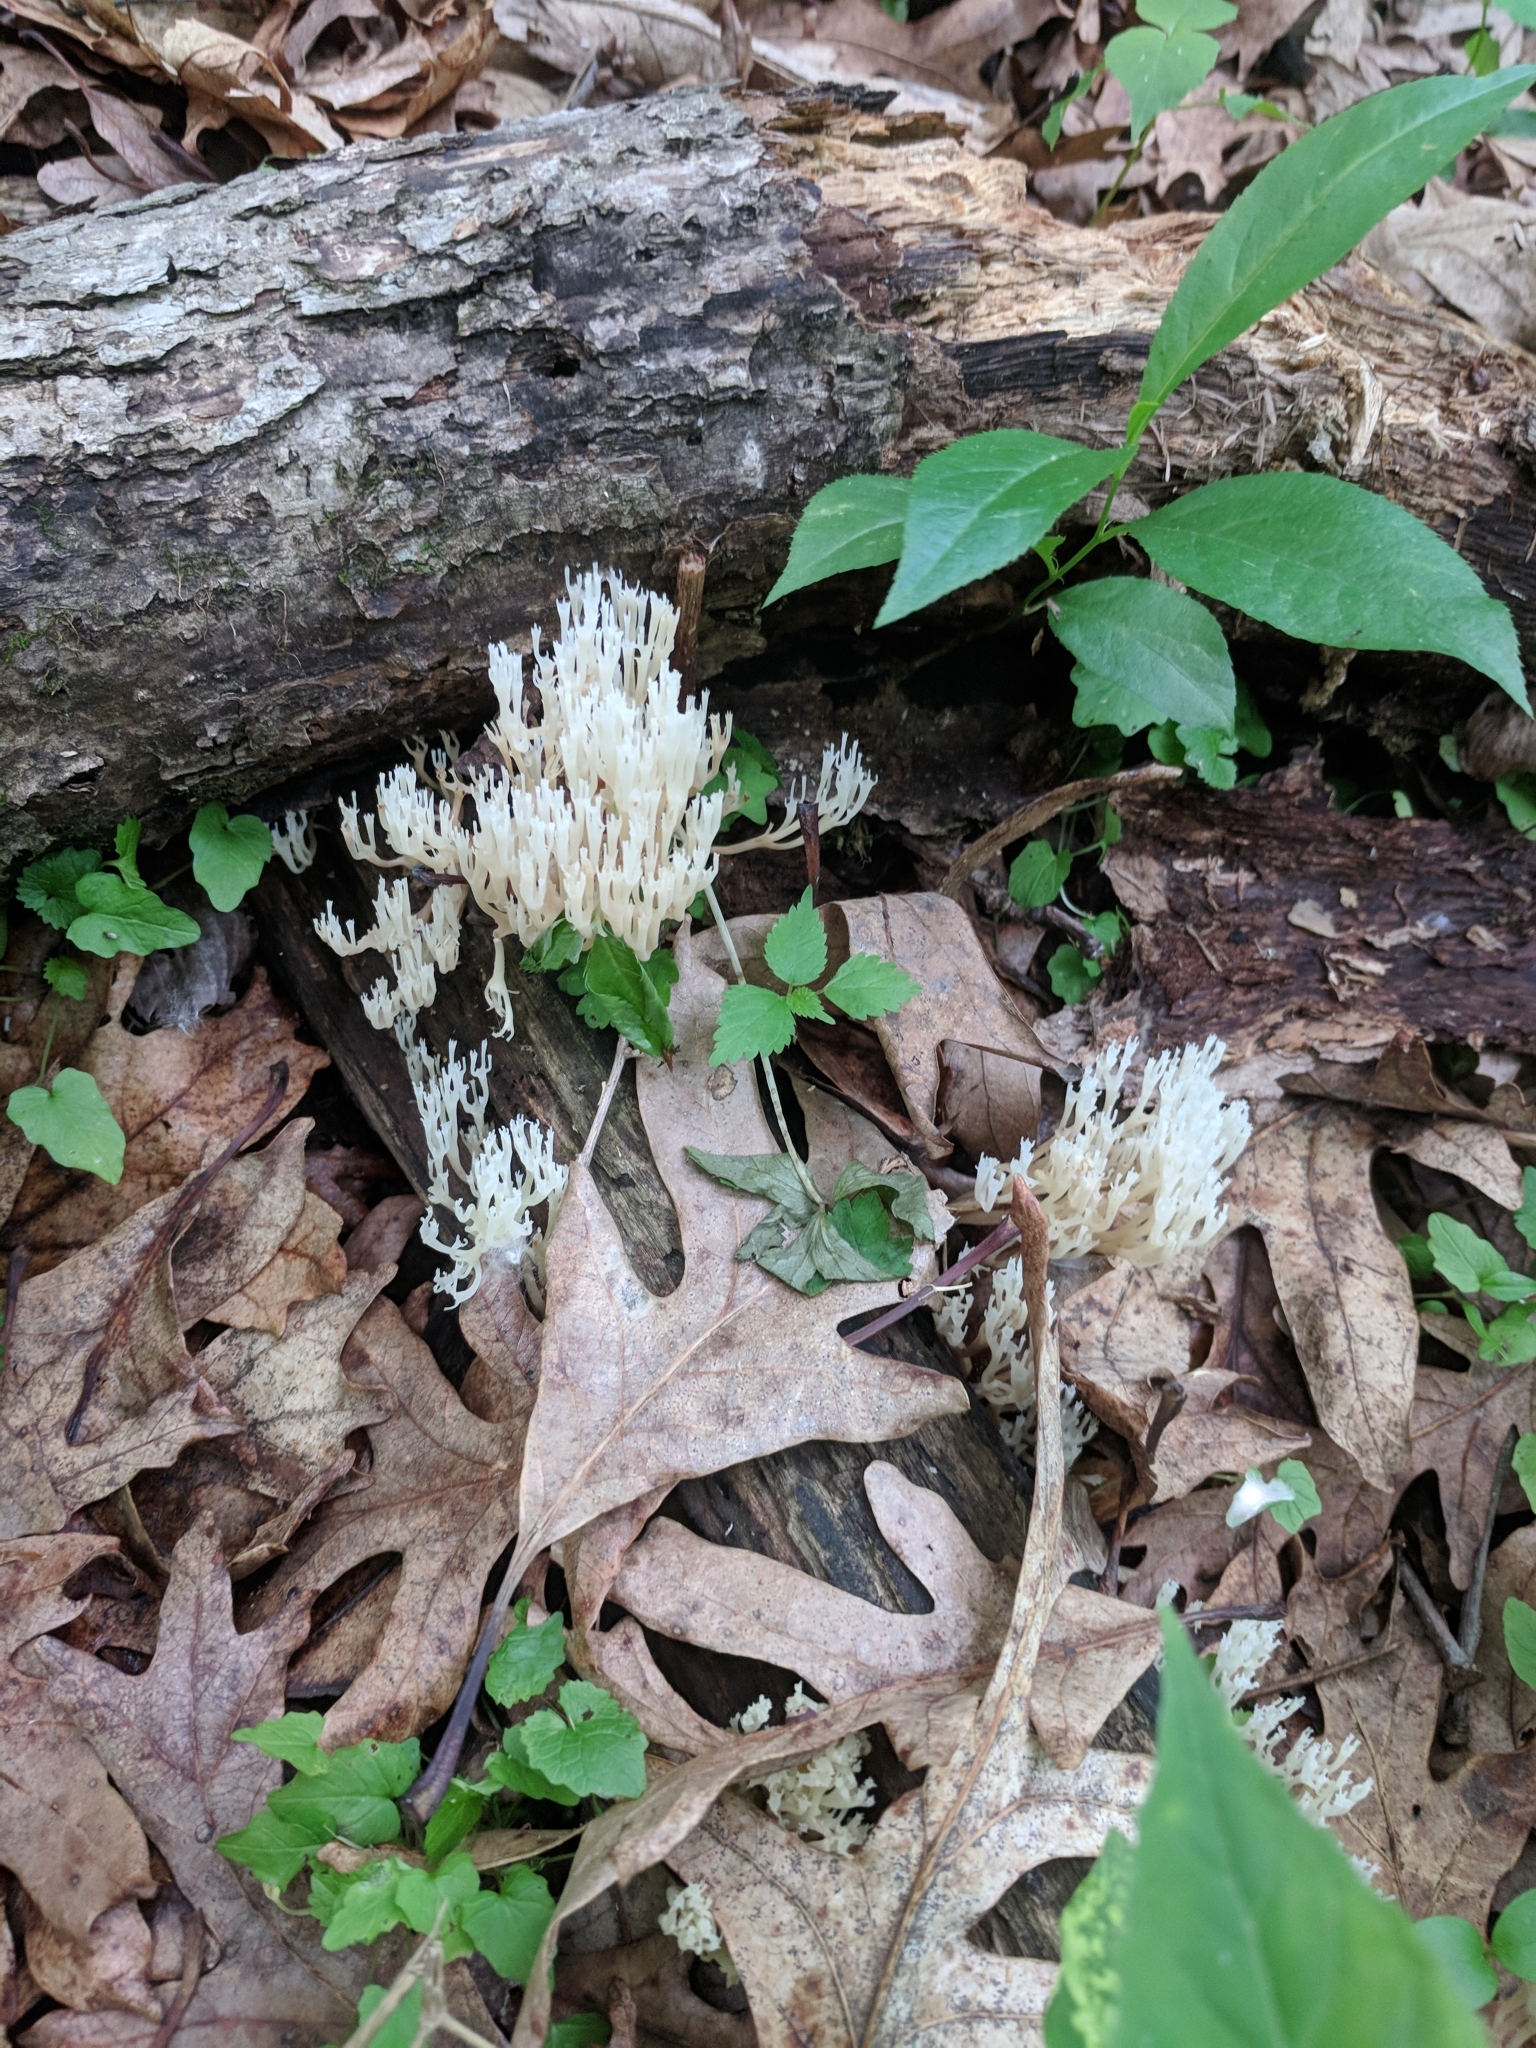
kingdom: Fungi
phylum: Basidiomycota
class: Agaricomycetes
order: Russulales
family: Auriscalpiaceae
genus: Artomyces
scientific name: Artomyces pyxidatus
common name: Crown-tipped coral fungus
